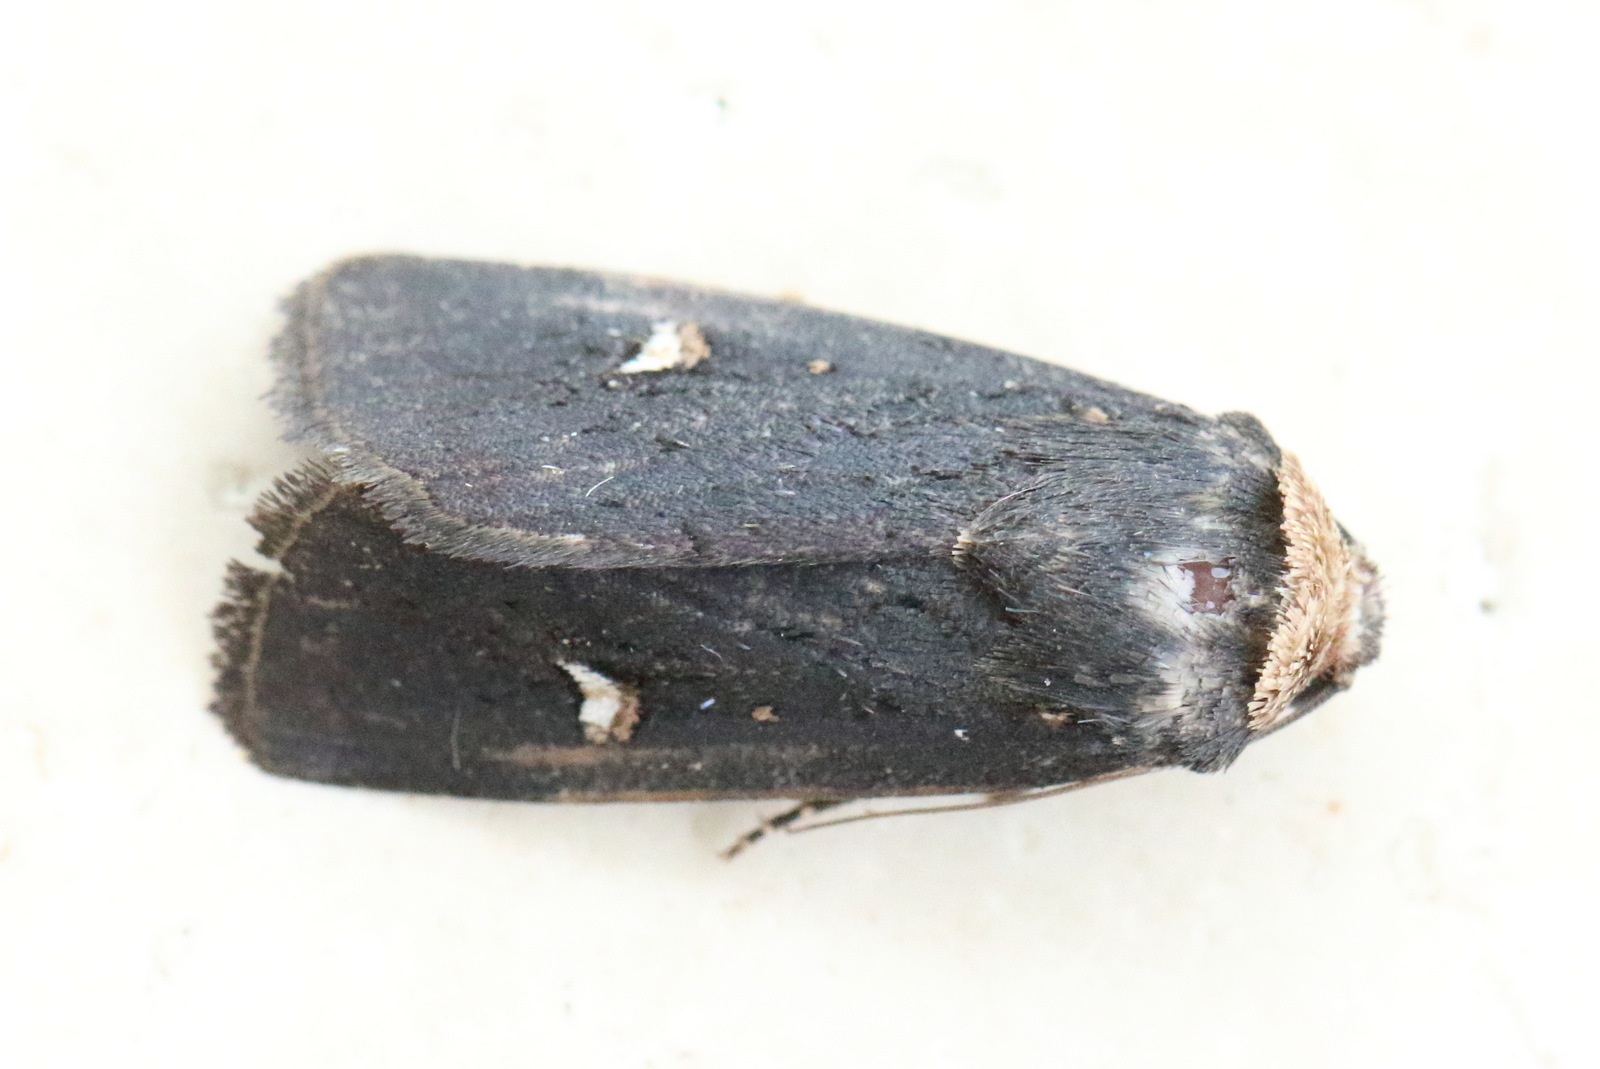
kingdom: Animalia
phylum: Arthropoda
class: Insecta
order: Lepidoptera
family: Noctuidae
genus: Proteuxoa
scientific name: Proteuxoa testaceicollis
